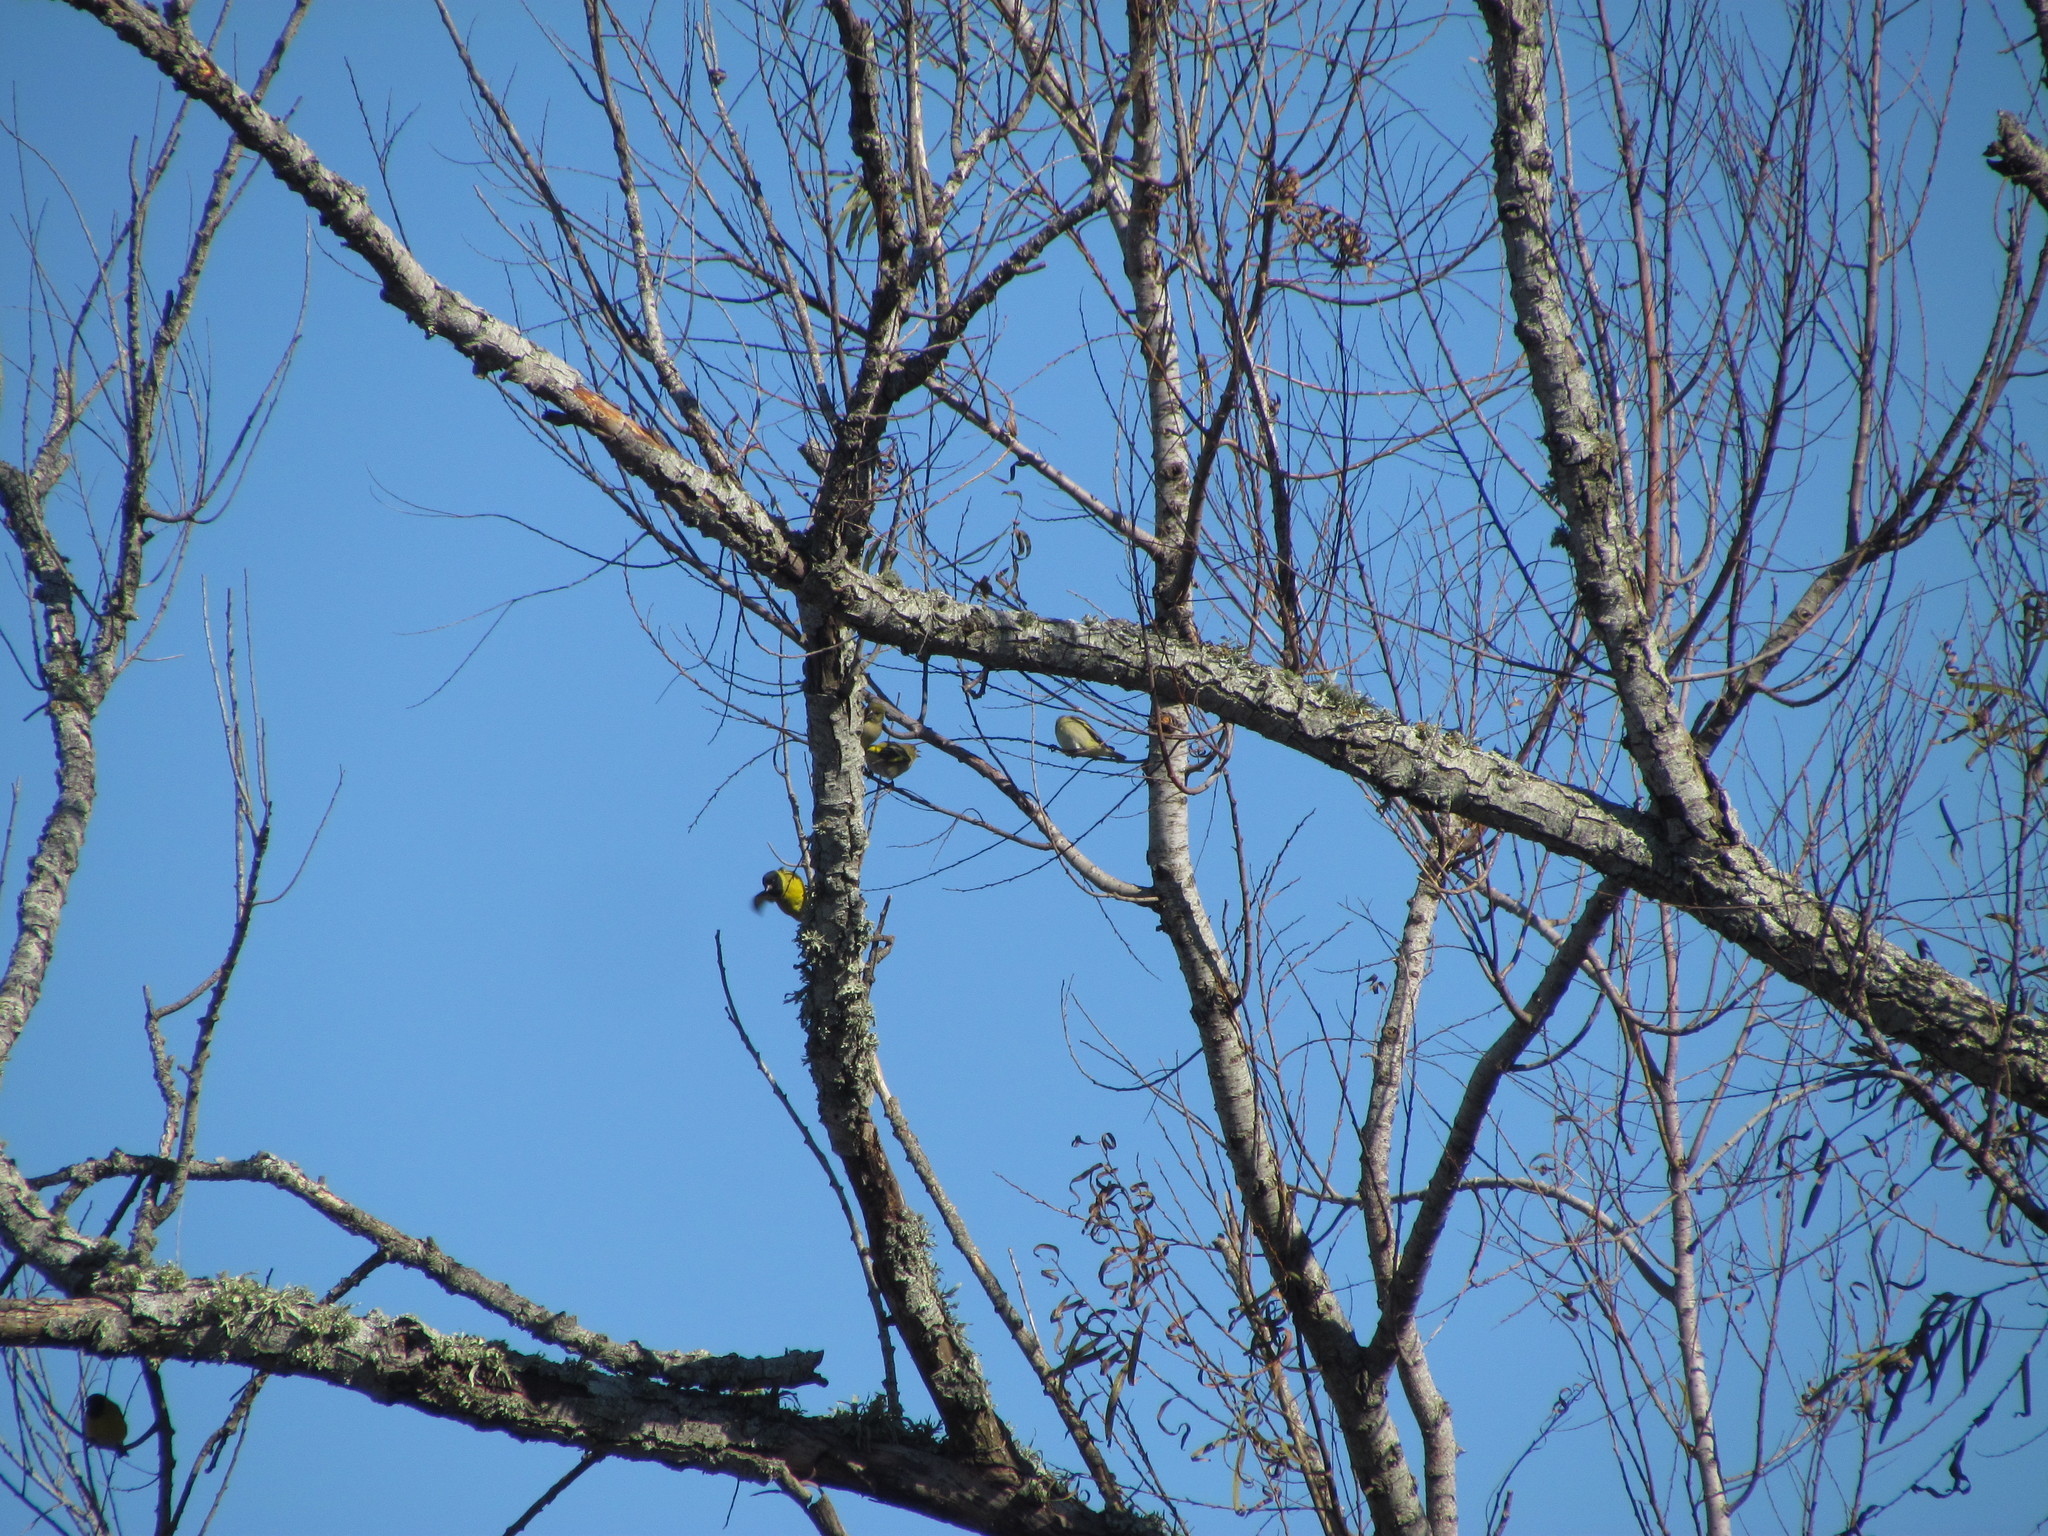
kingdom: Animalia
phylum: Chordata
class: Aves
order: Passeriformes
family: Fringillidae
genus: Spinus
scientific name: Spinus magellanicus
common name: Hooded siskin
